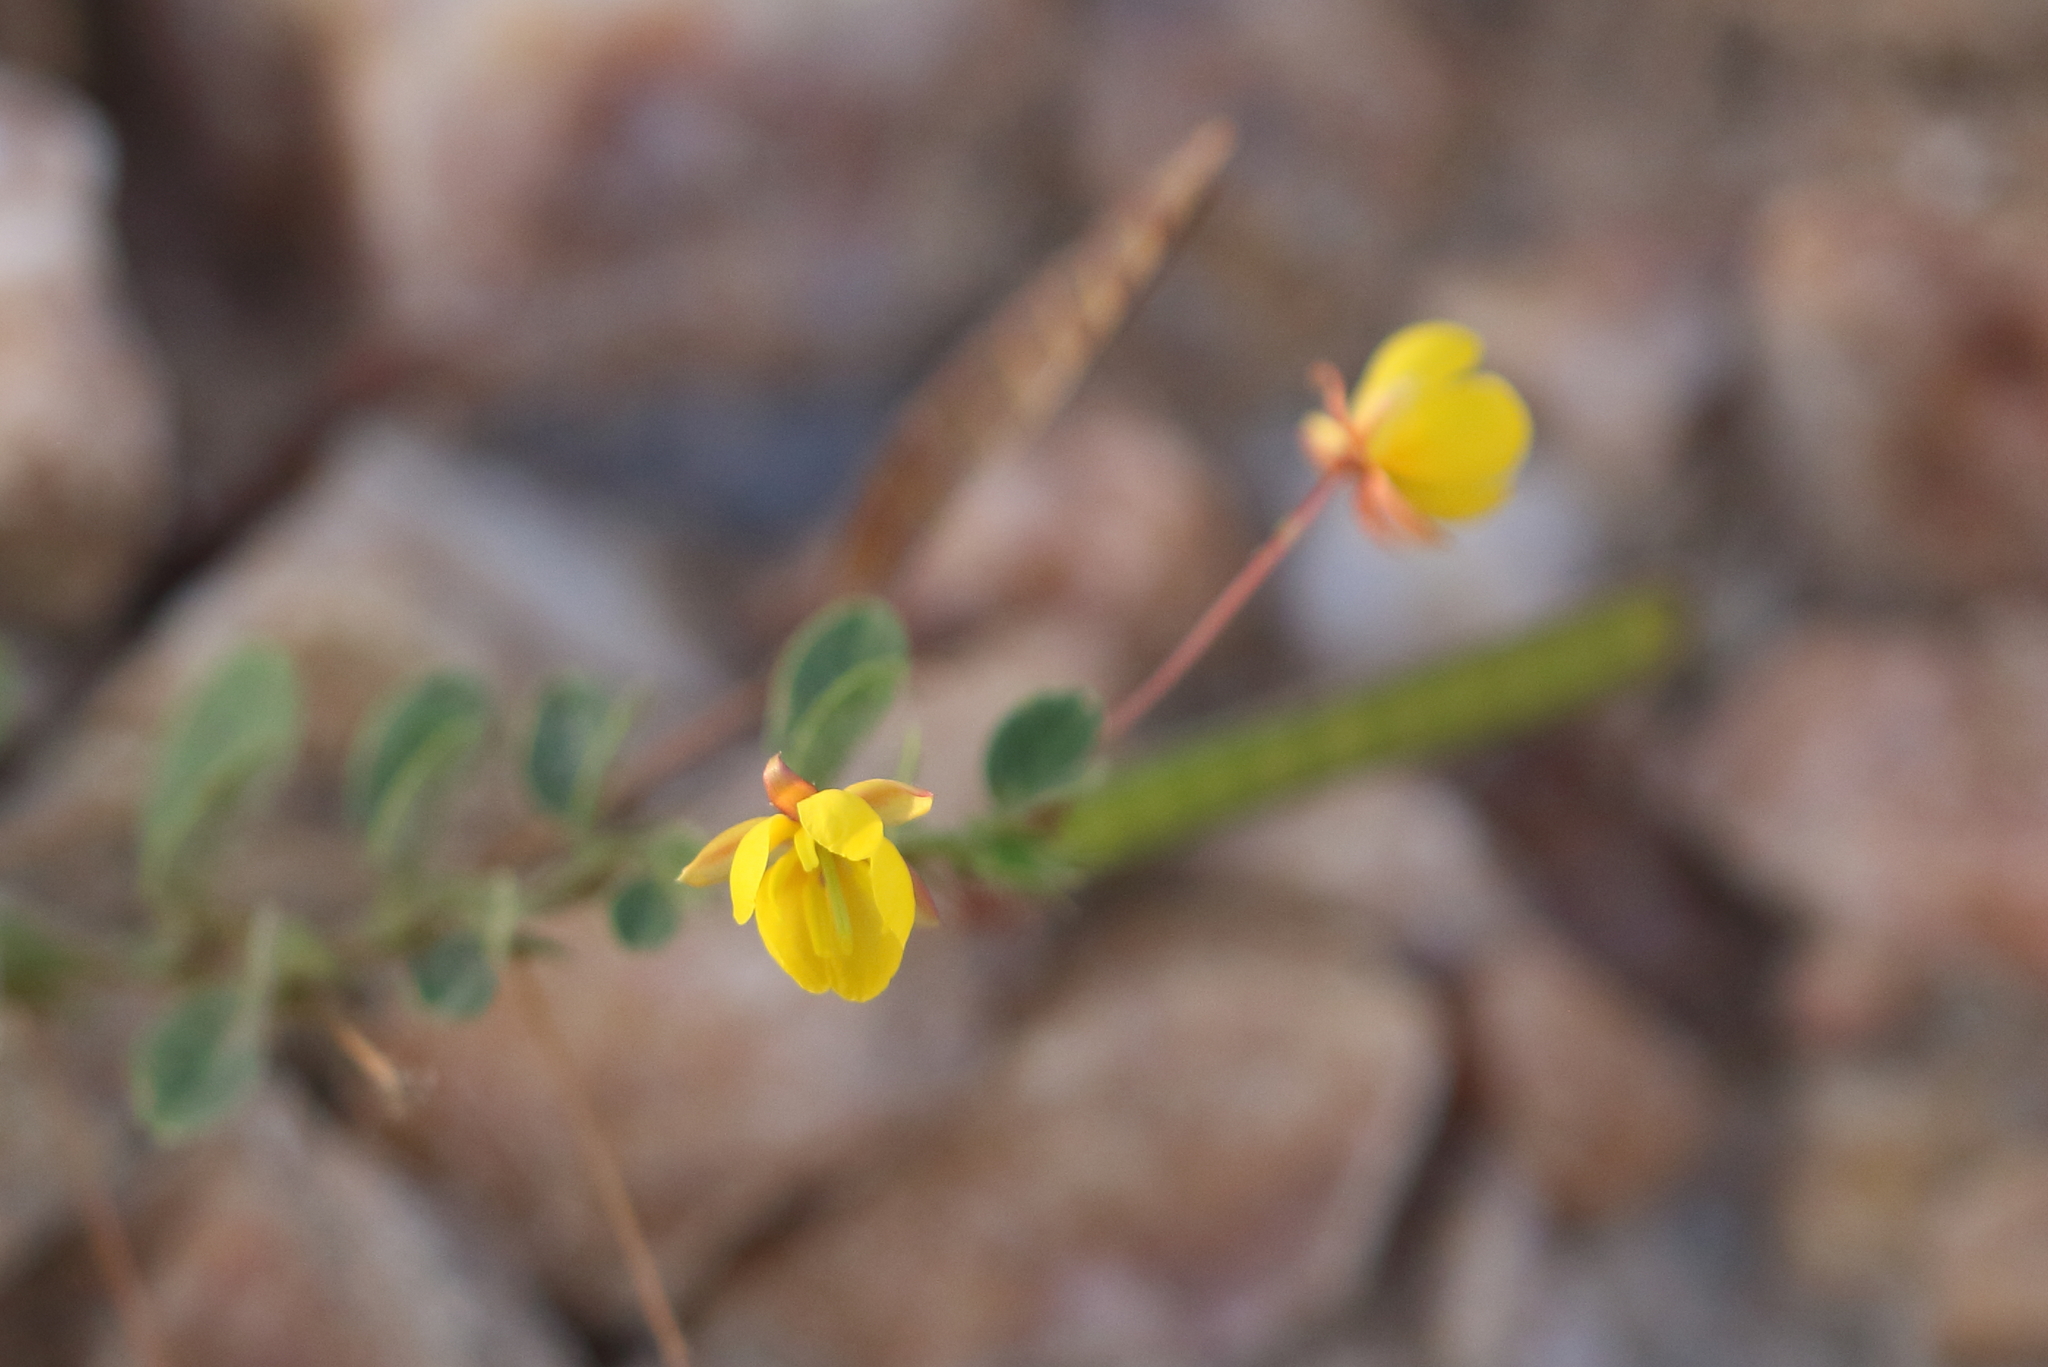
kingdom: Plantae
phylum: Tracheophyta
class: Magnoliopsida
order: Fabales
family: Fabaceae
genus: Chamaecrista
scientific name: Chamaecrista rotundifolia
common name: Round-leaf cassia
